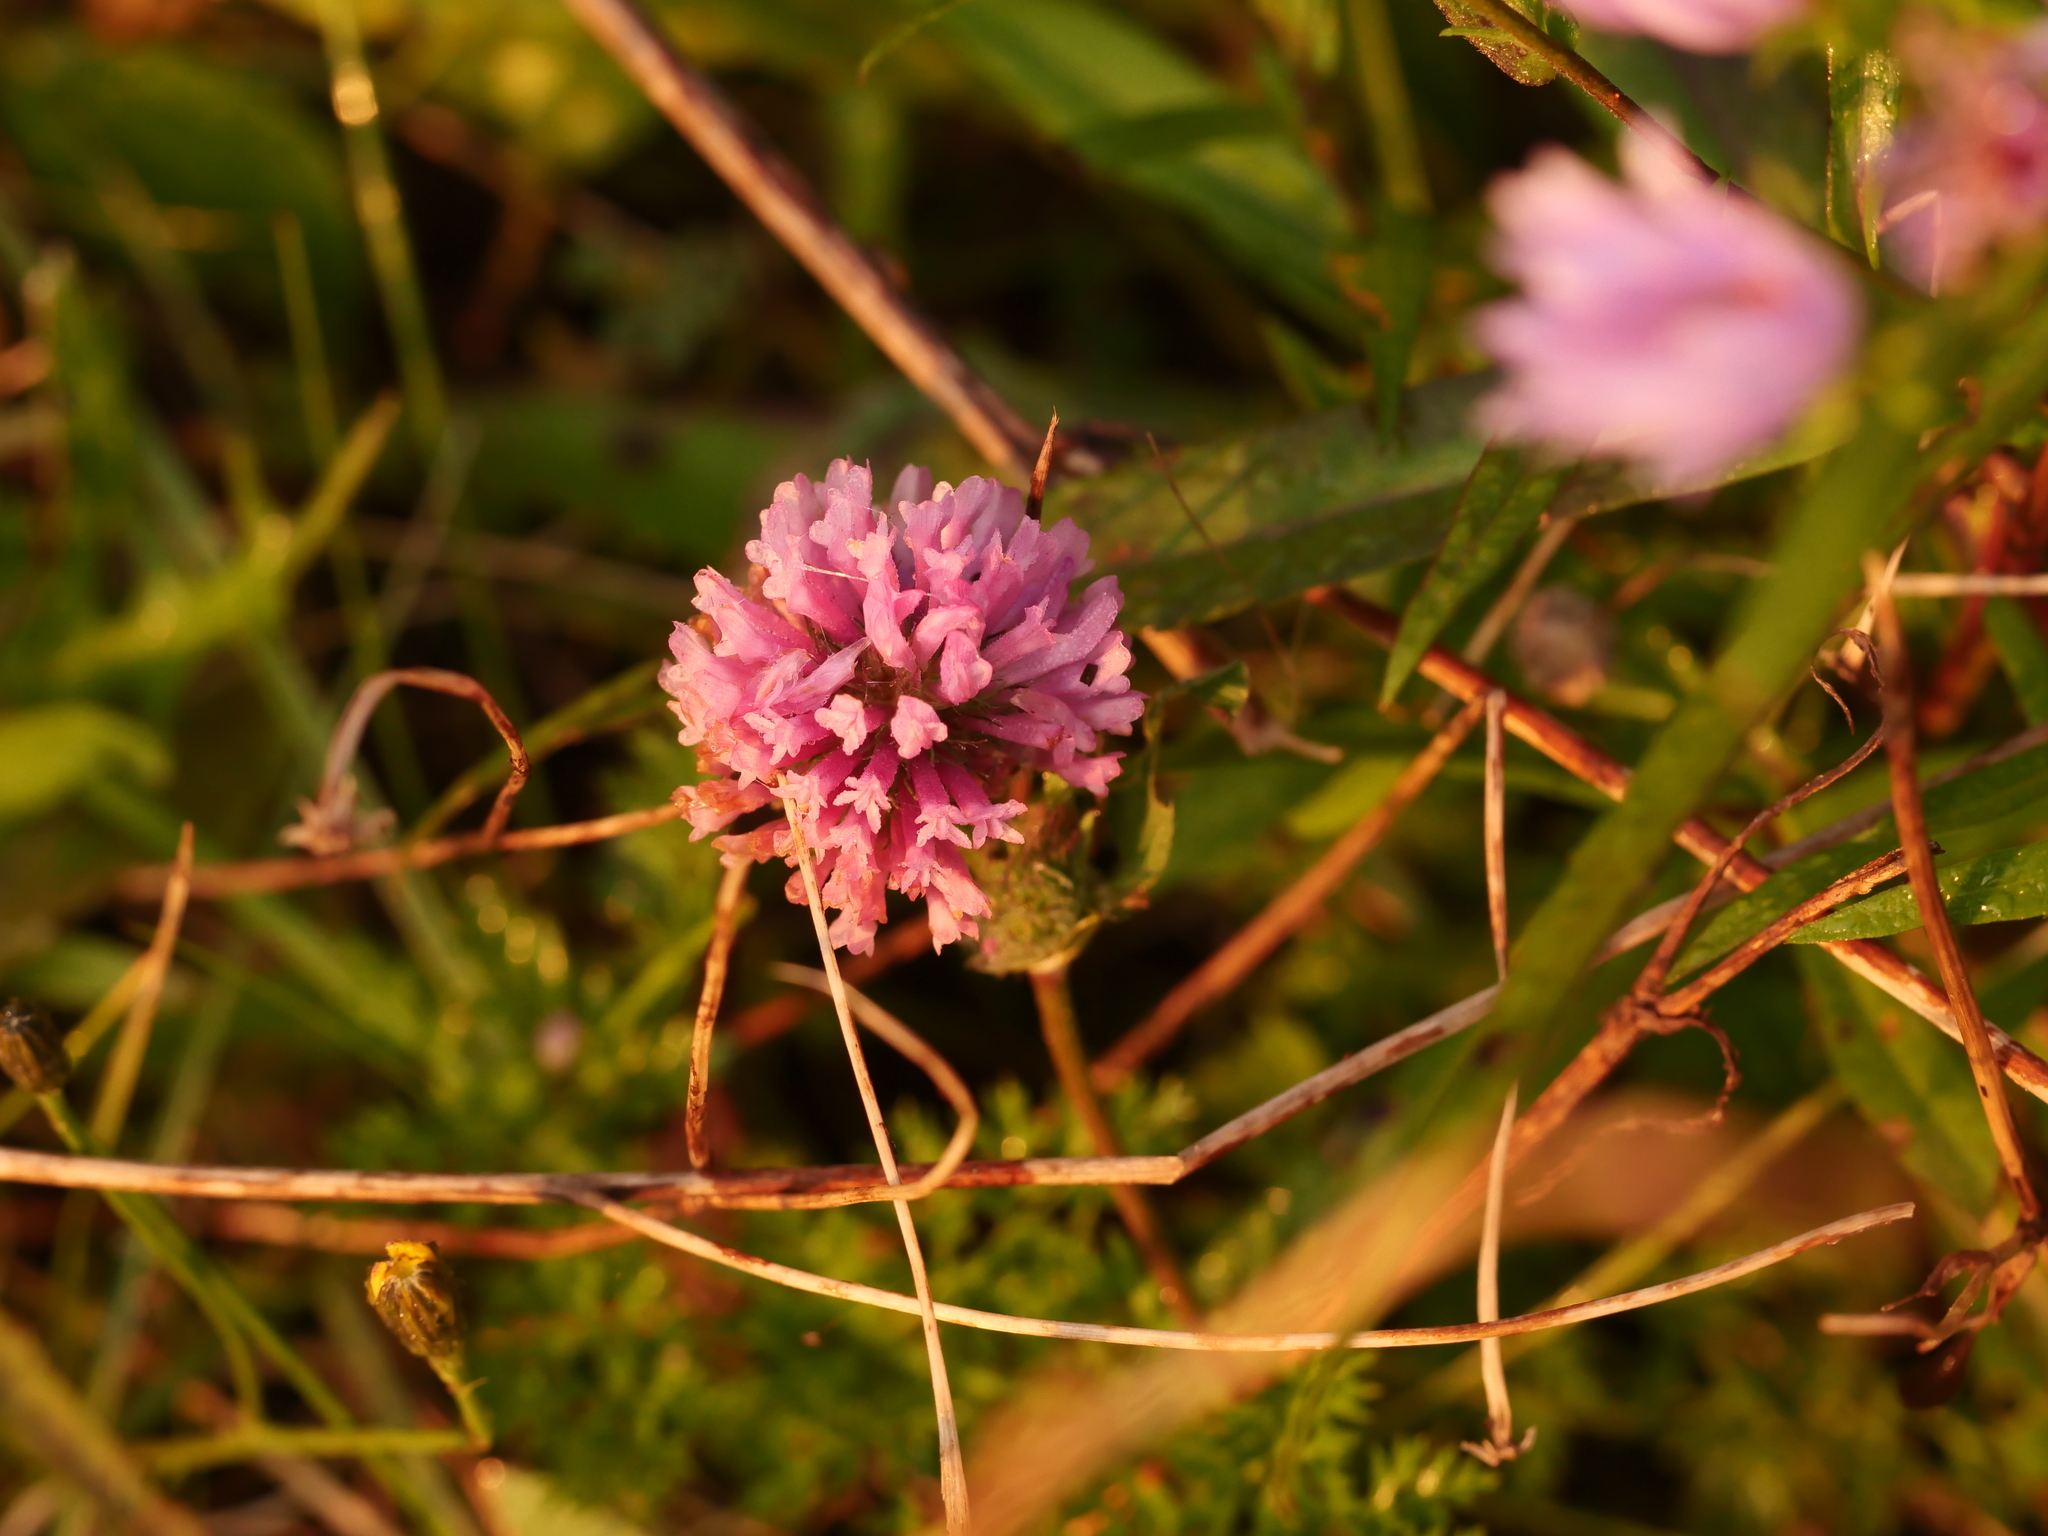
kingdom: Plantae
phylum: Tracheophyta
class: Magnoliopsida
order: Fabales
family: Fabaceae
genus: Trifolium
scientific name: Trifolium pratense
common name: Red clover
